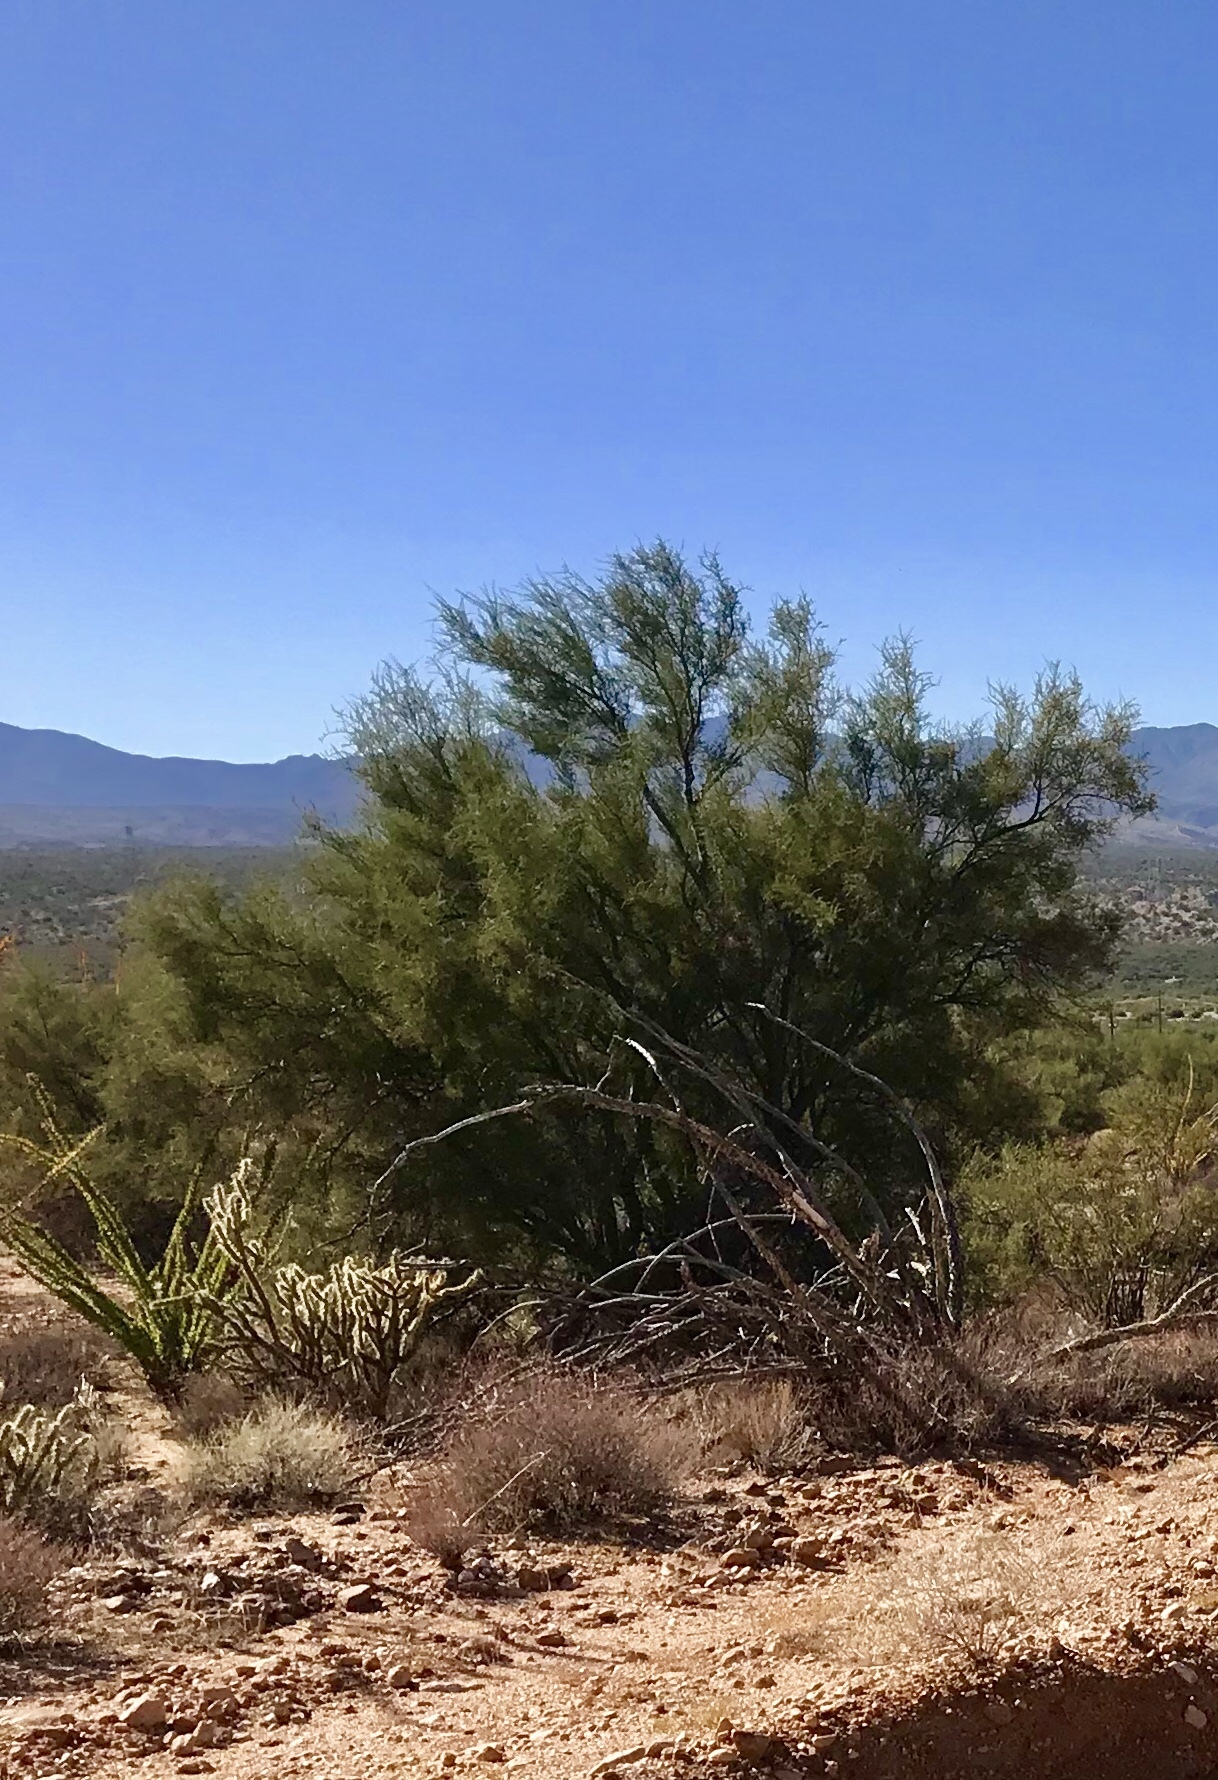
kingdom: Plantae
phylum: Tracheophyta
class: Magnoliopsida
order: Celastrales
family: Celastraceae
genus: Canotia
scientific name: Canotia holacantha
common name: Crucifixion thorns
